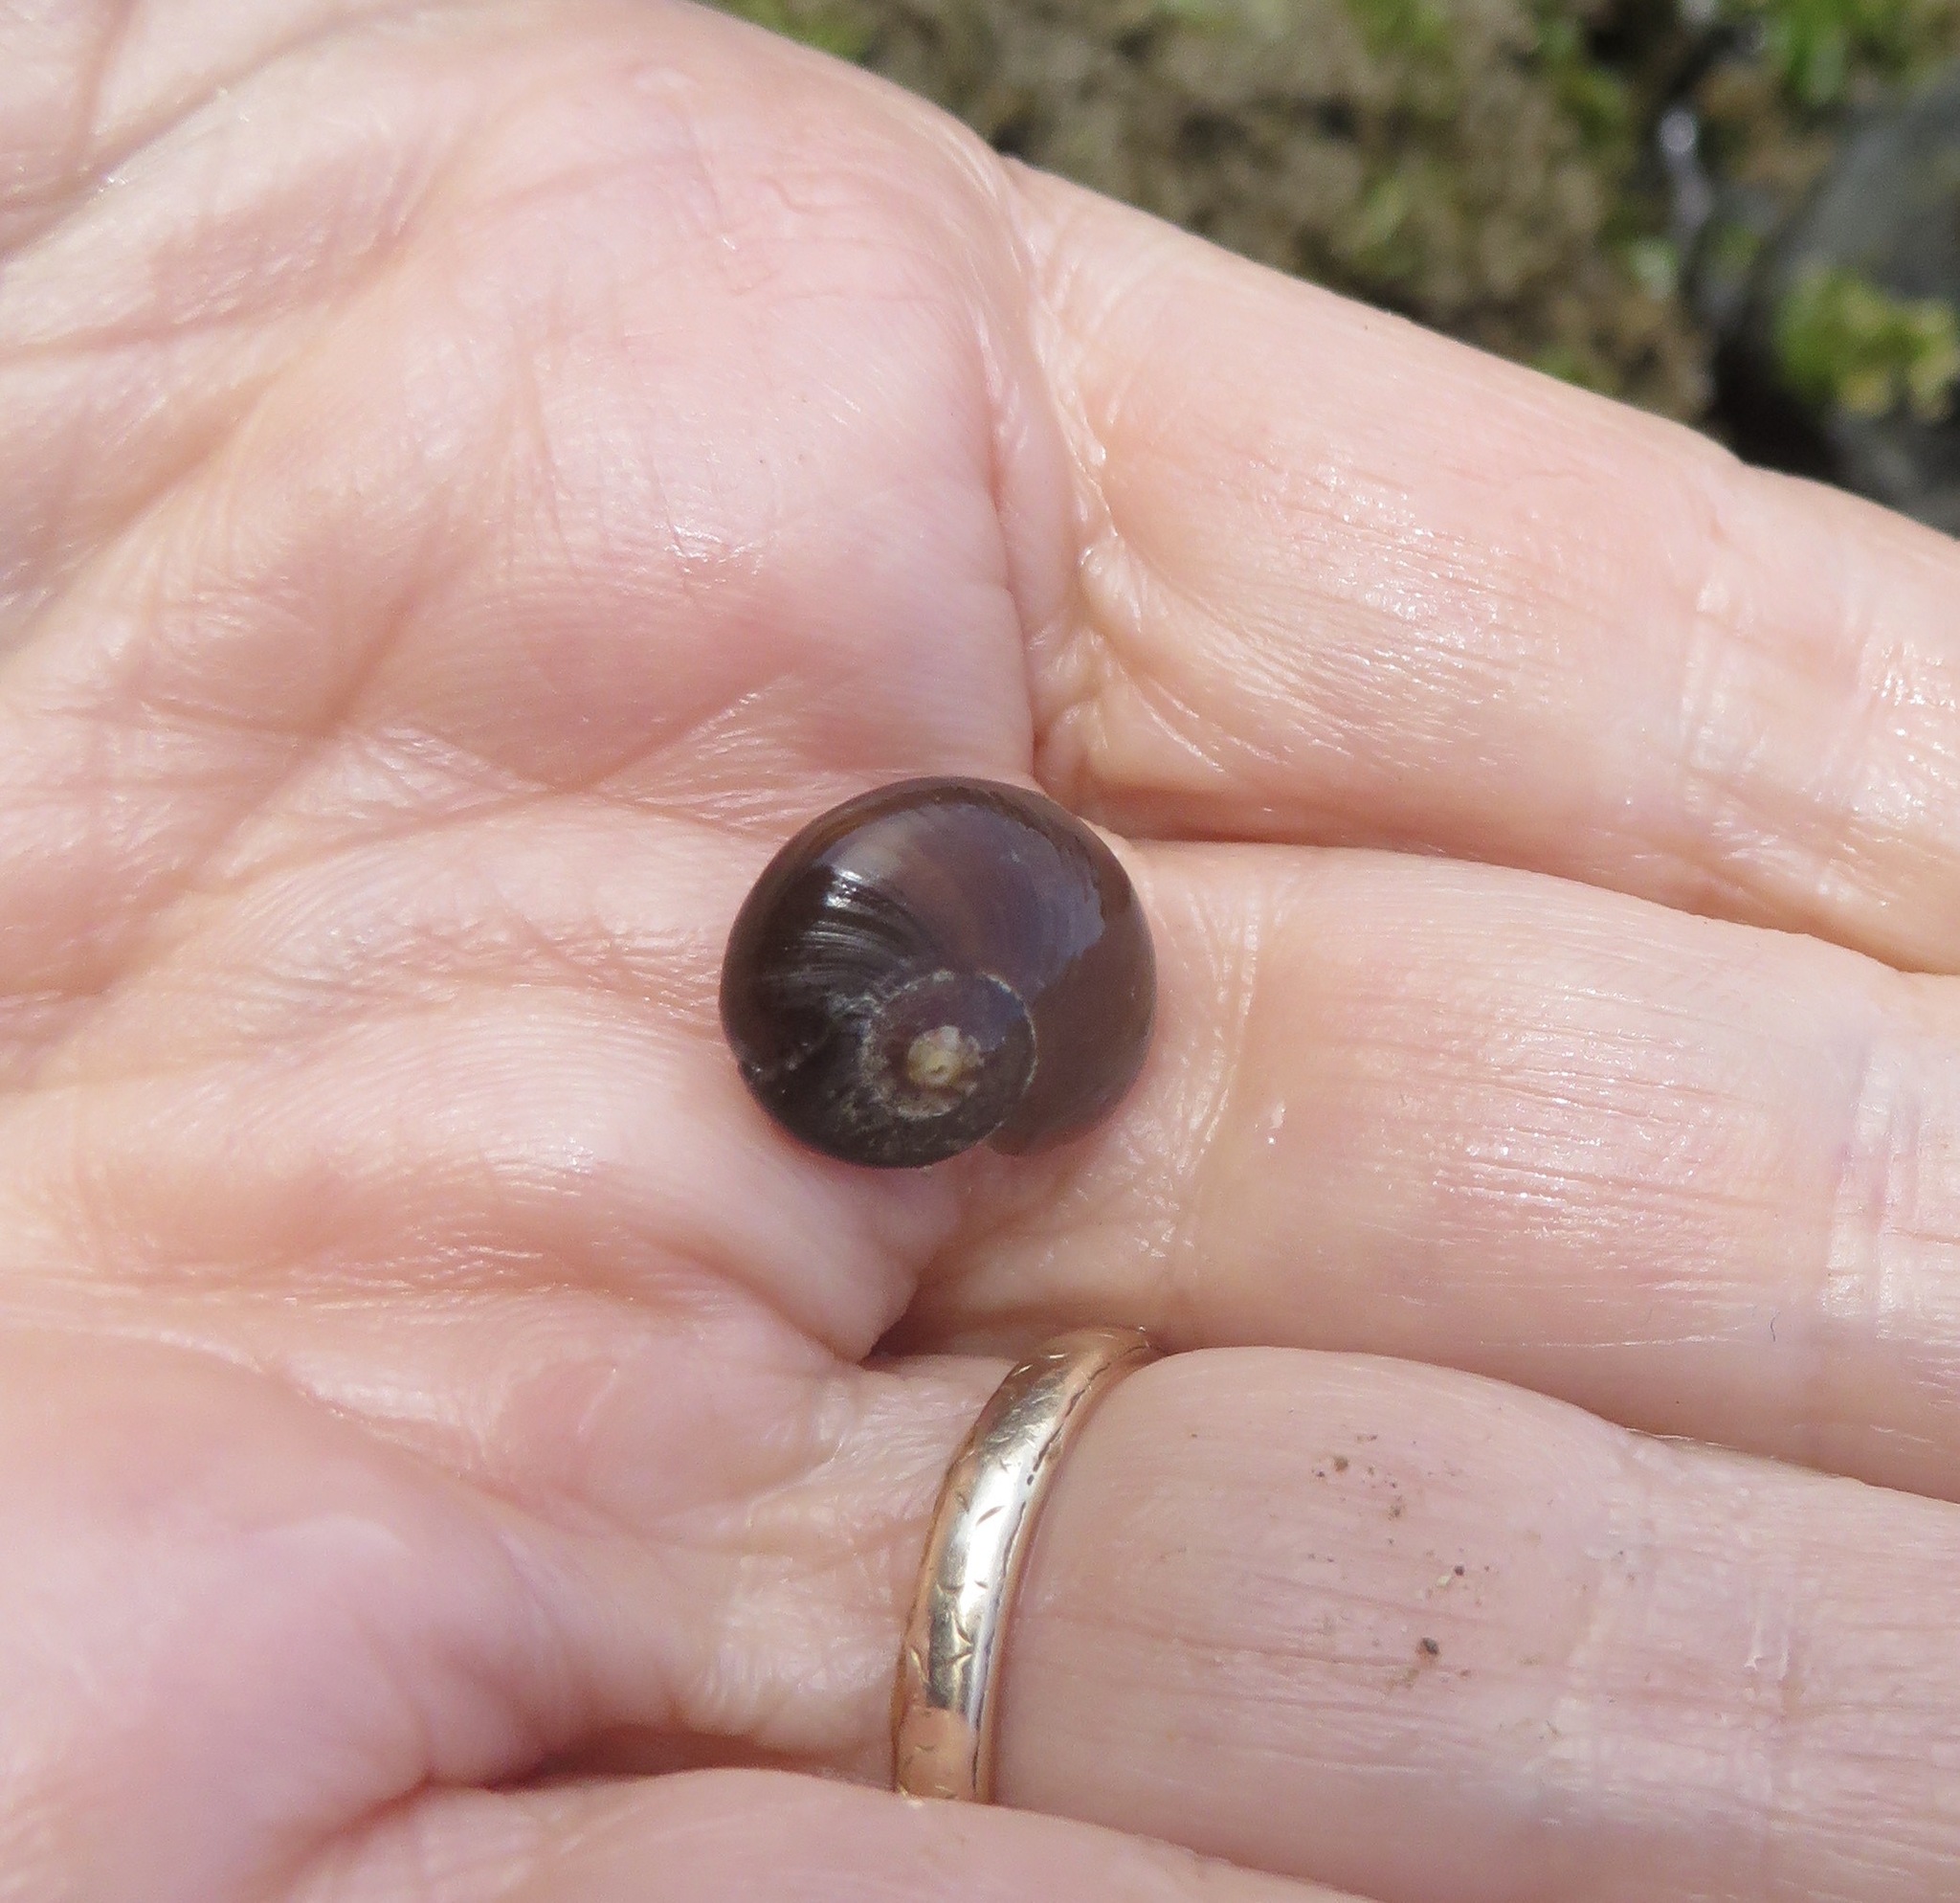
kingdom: Animalia
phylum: Mollusca
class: Gastropoda
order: Trochida
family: Tegulidae
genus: Norrisia
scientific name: Norrisia norrisii
